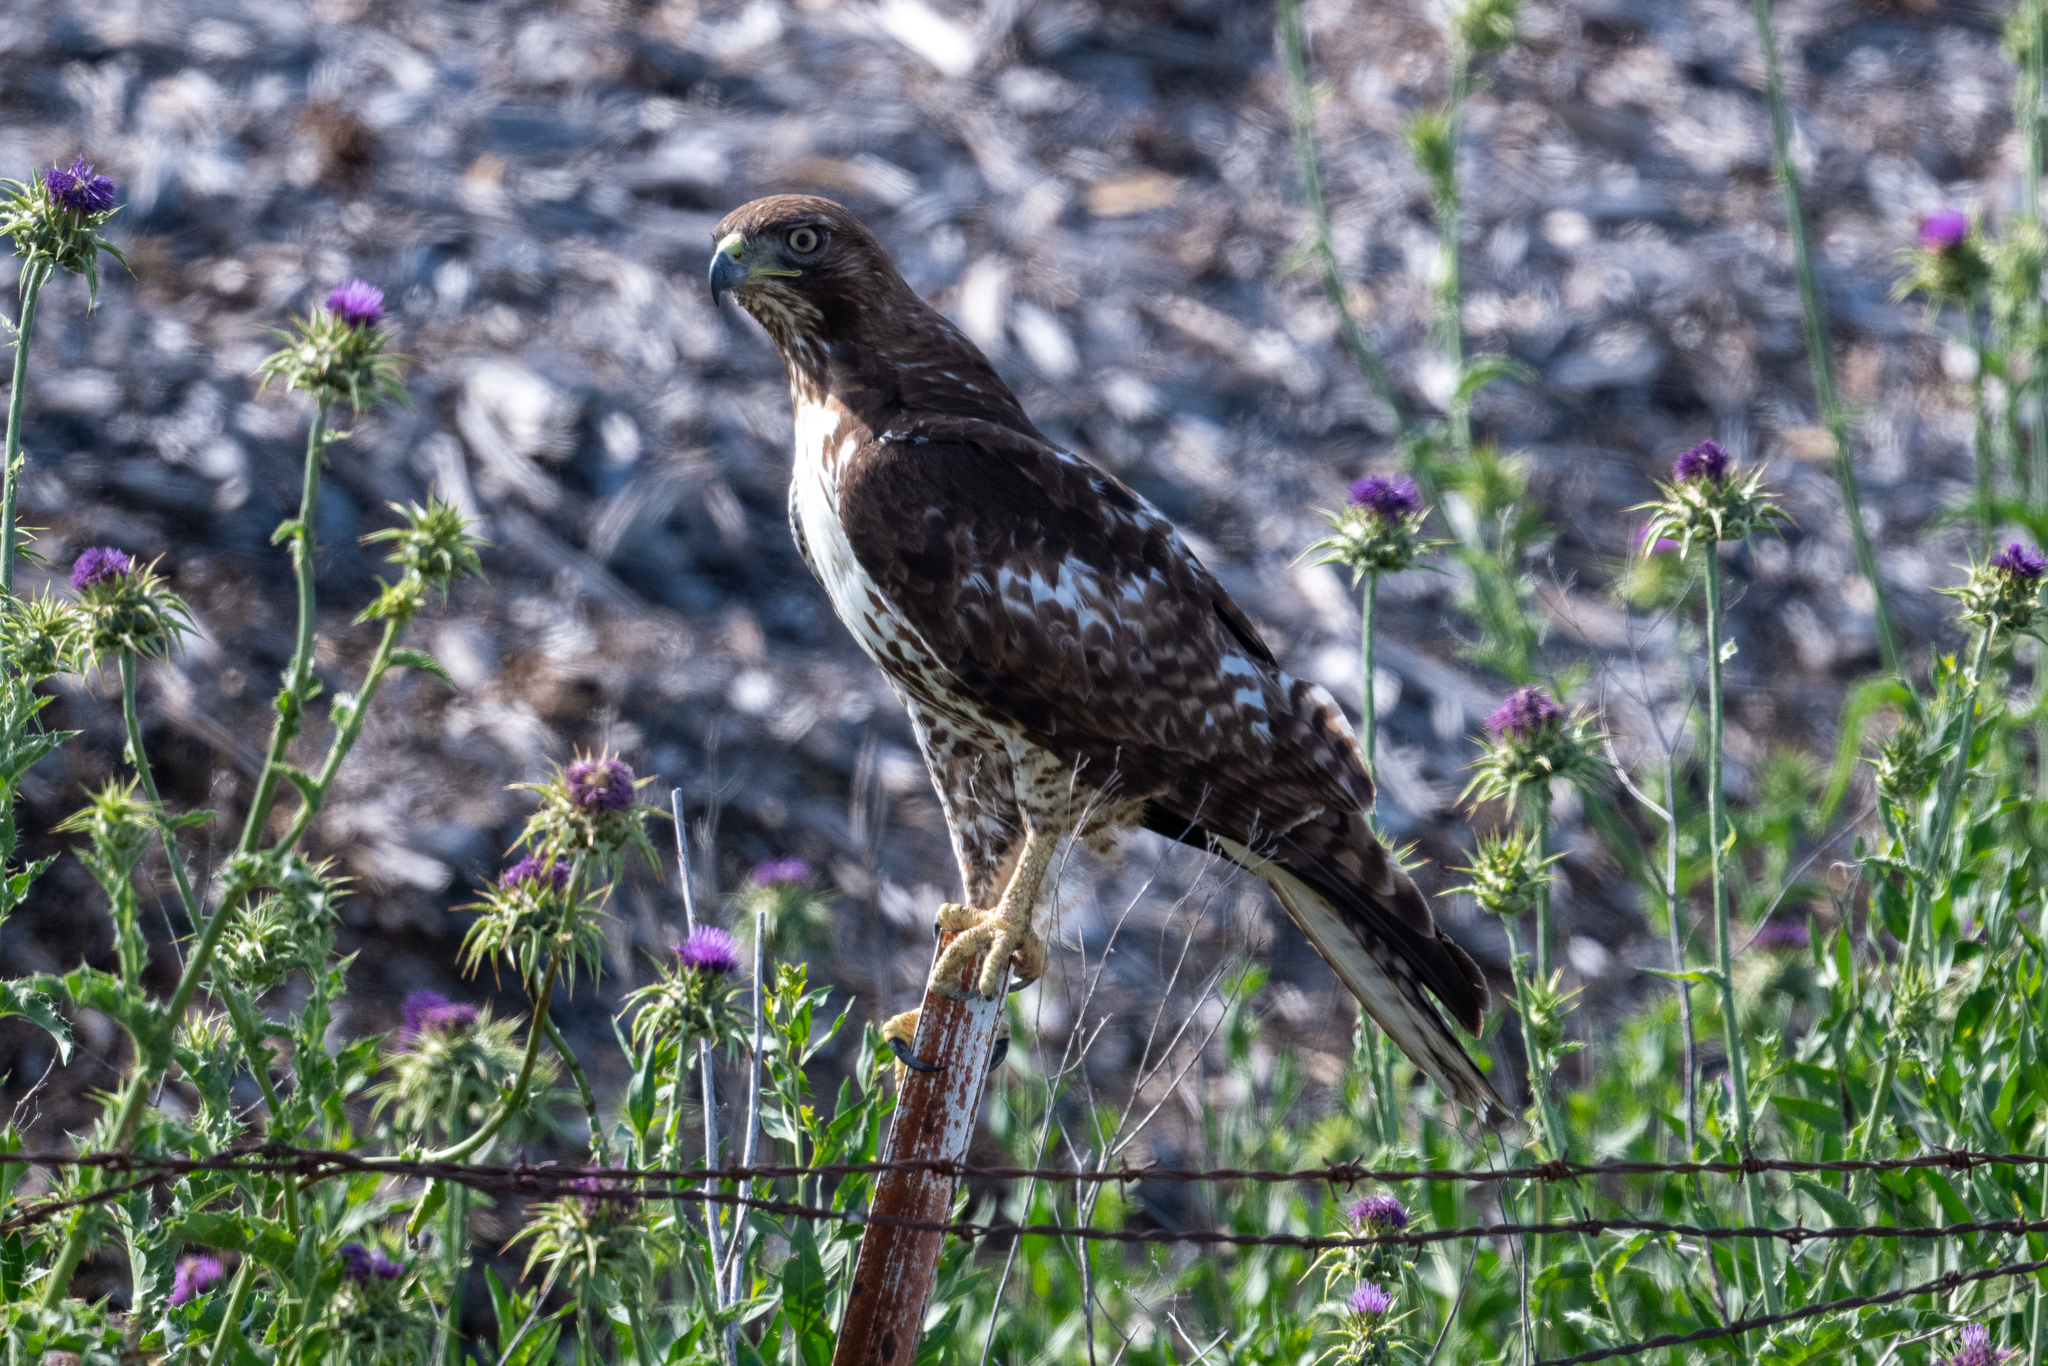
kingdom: Animalia
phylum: Chordata
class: Aves
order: Accipitriformes
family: Accipitridae
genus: Buteo
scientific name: Buteo jamaicensis
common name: Red-tailed hawk
